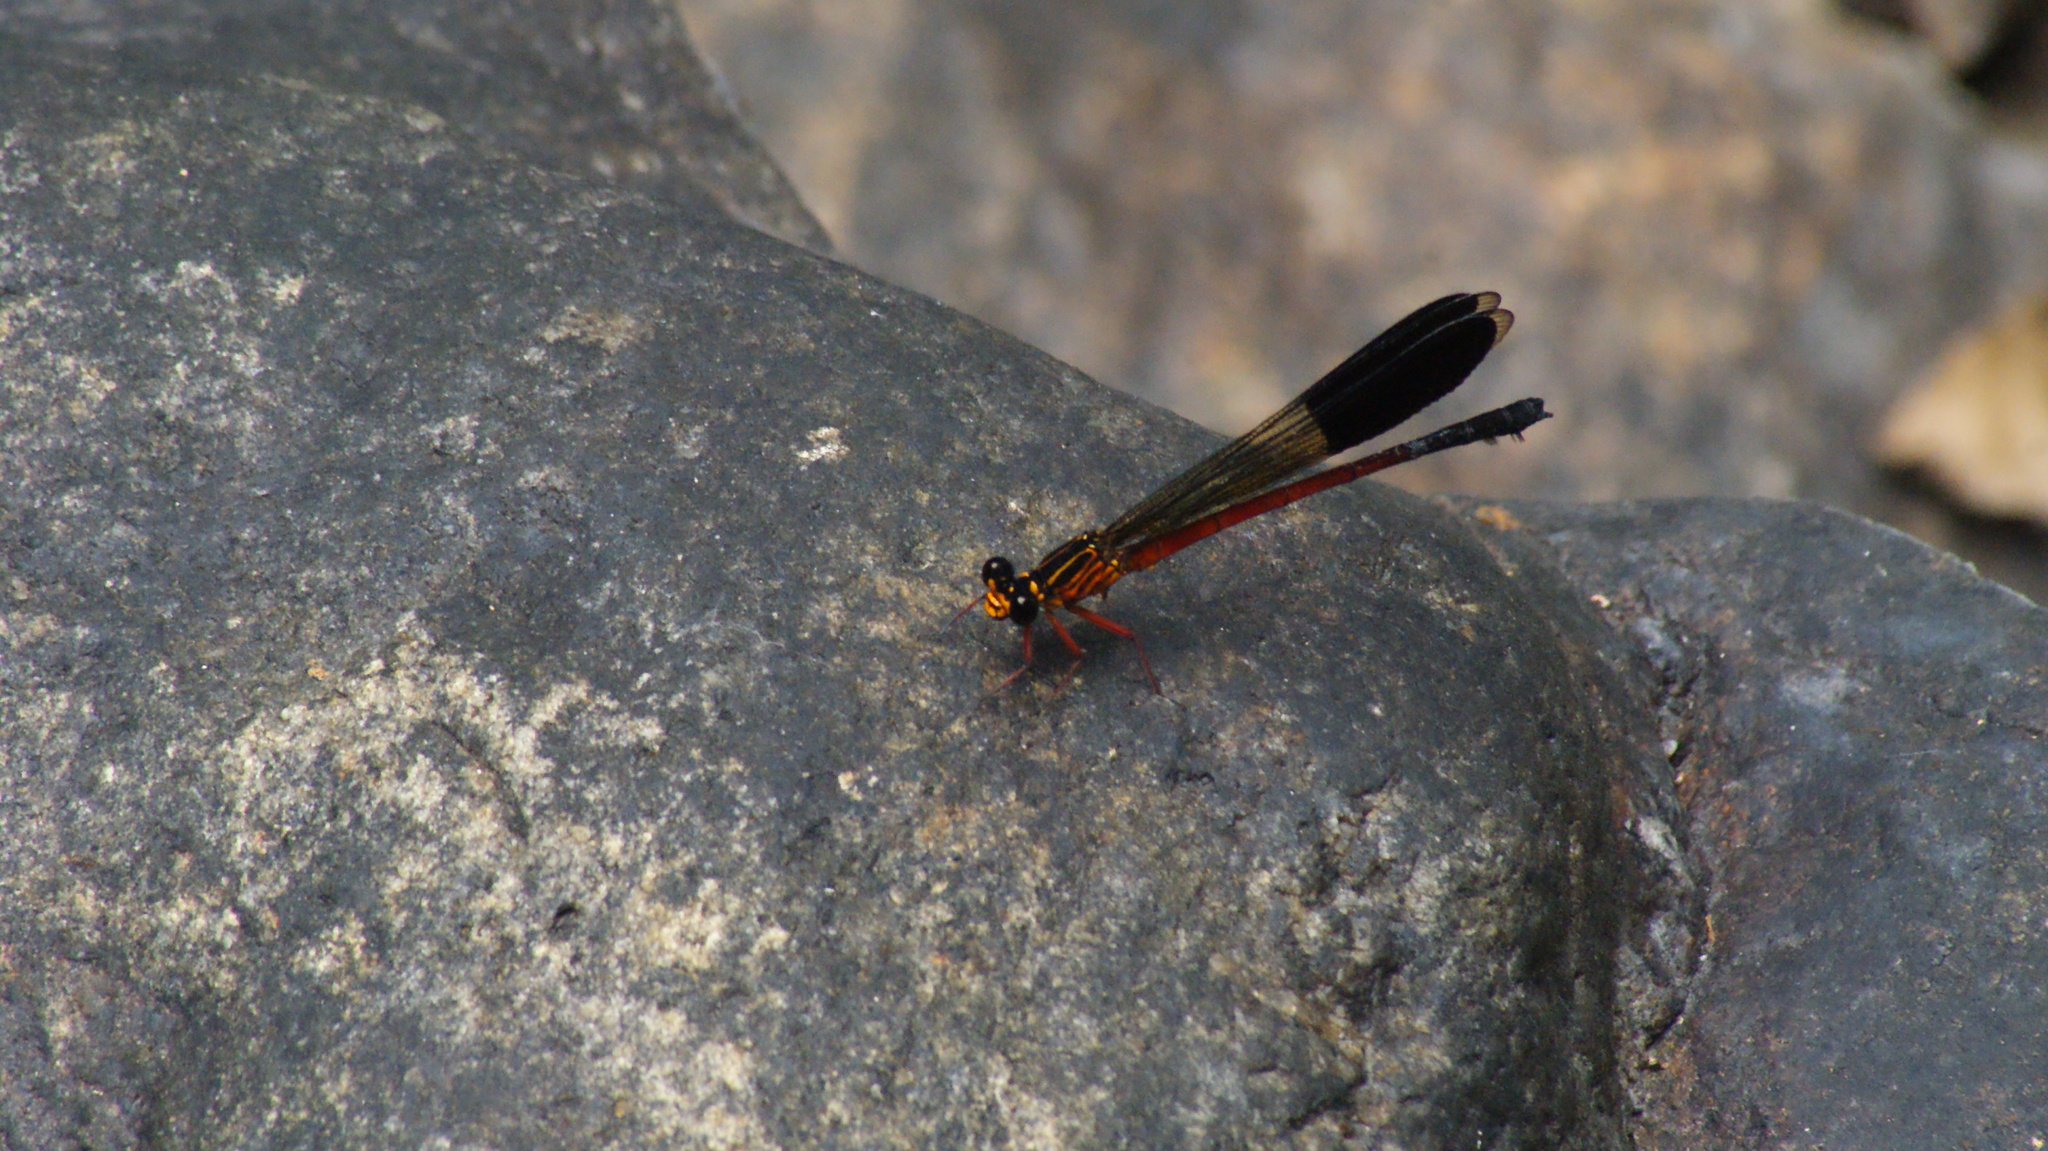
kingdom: Animalia
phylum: Arthropoda
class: Insecta
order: Odonata
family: Euphaeidae
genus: Euphaea
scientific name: Euphaea cardinalis
